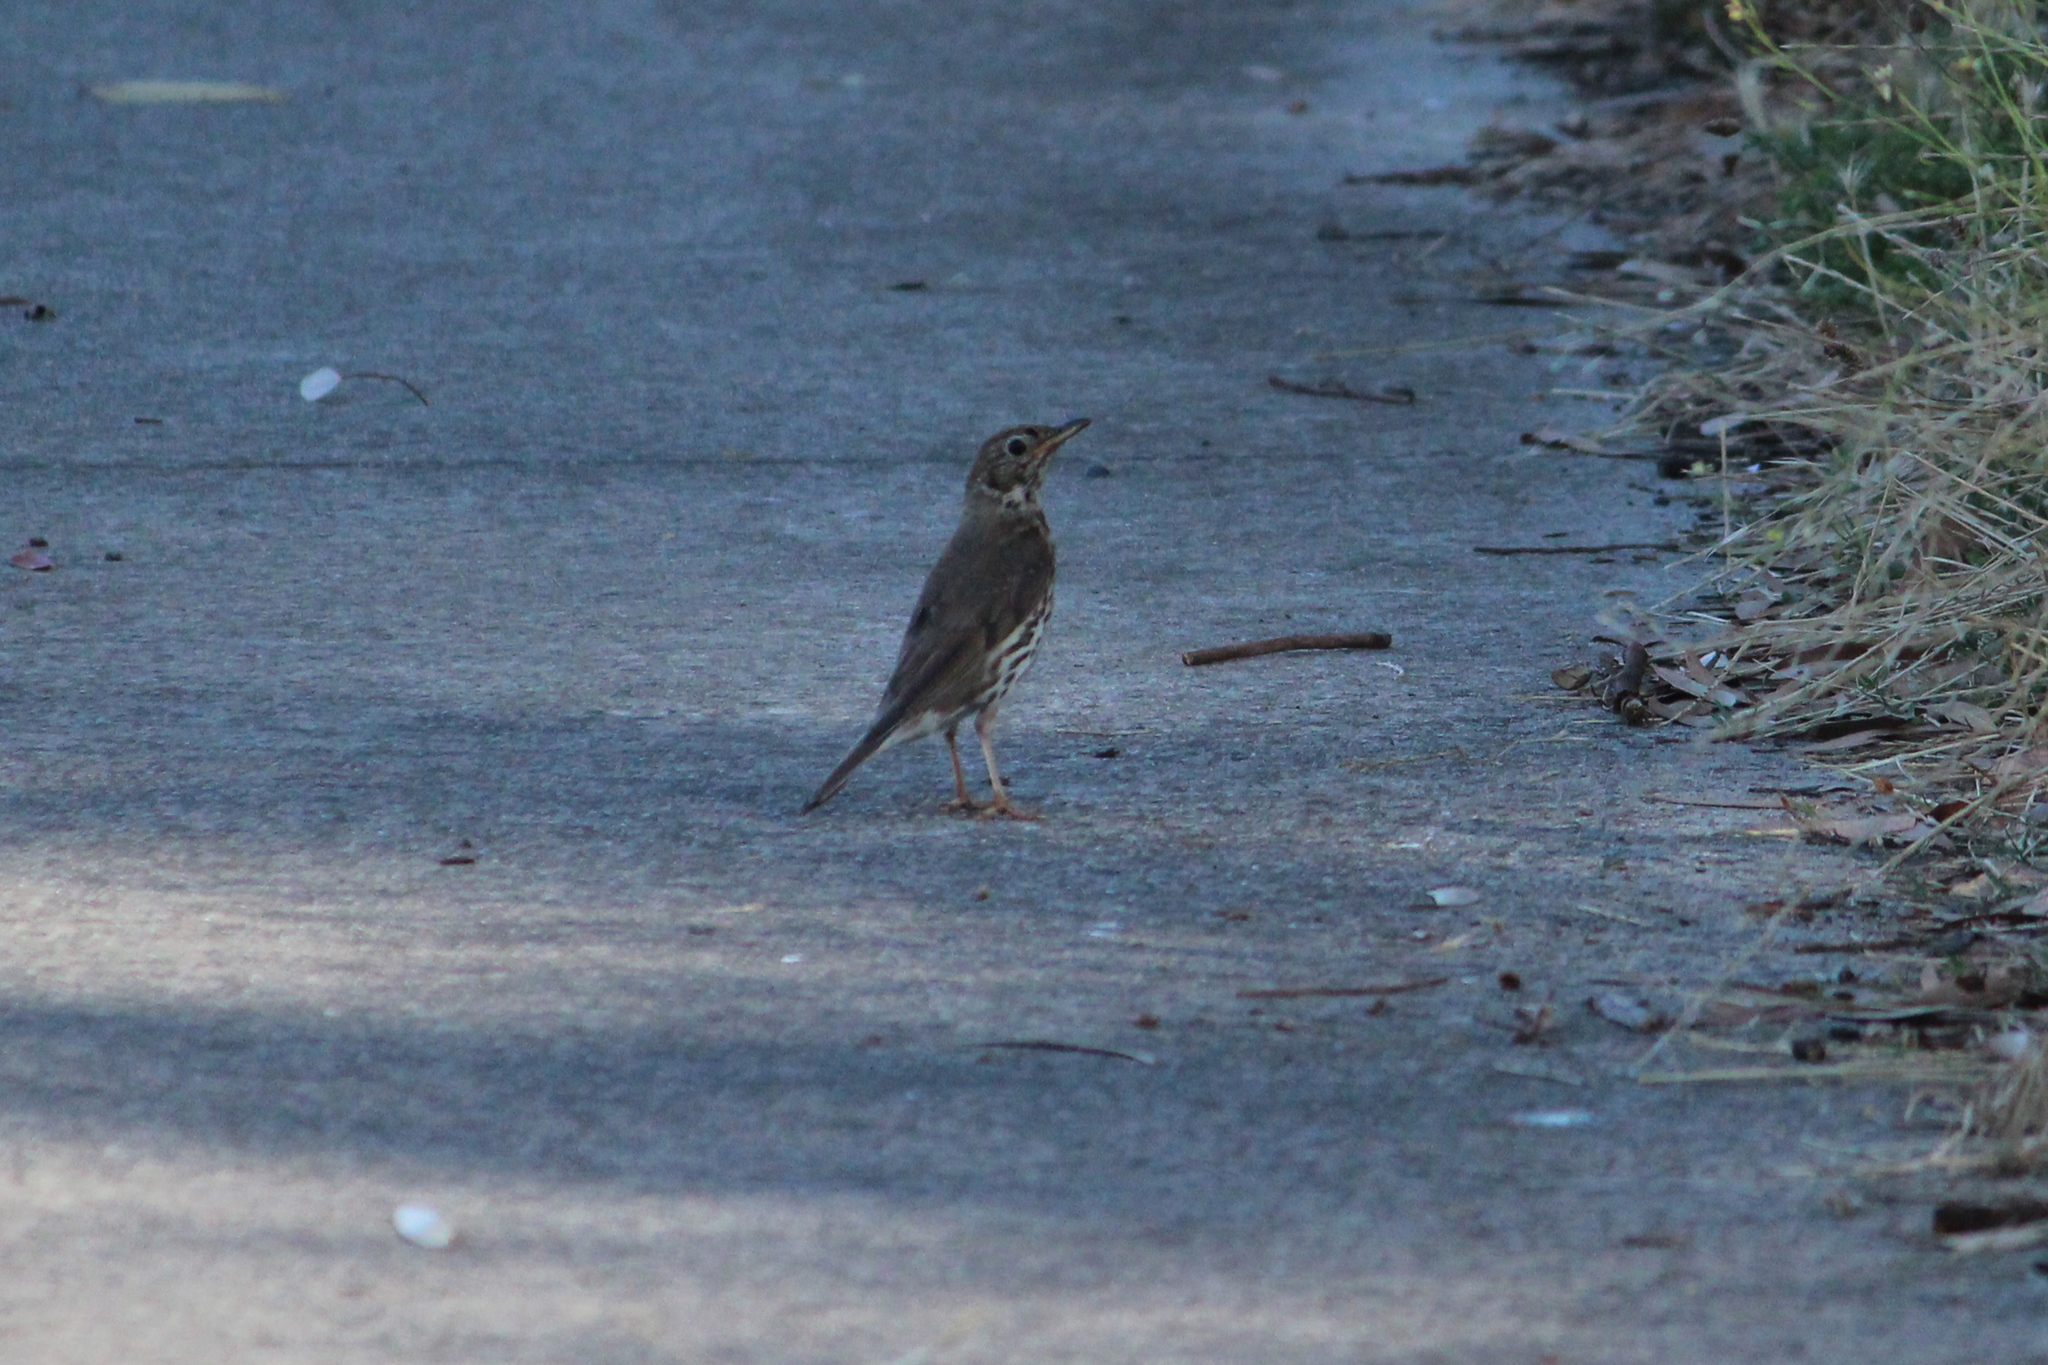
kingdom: Animalia
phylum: Chordata
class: Aves
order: Passeriformes
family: Turdidae
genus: Turdus
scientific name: Turdus philomelos
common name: Song thrush
